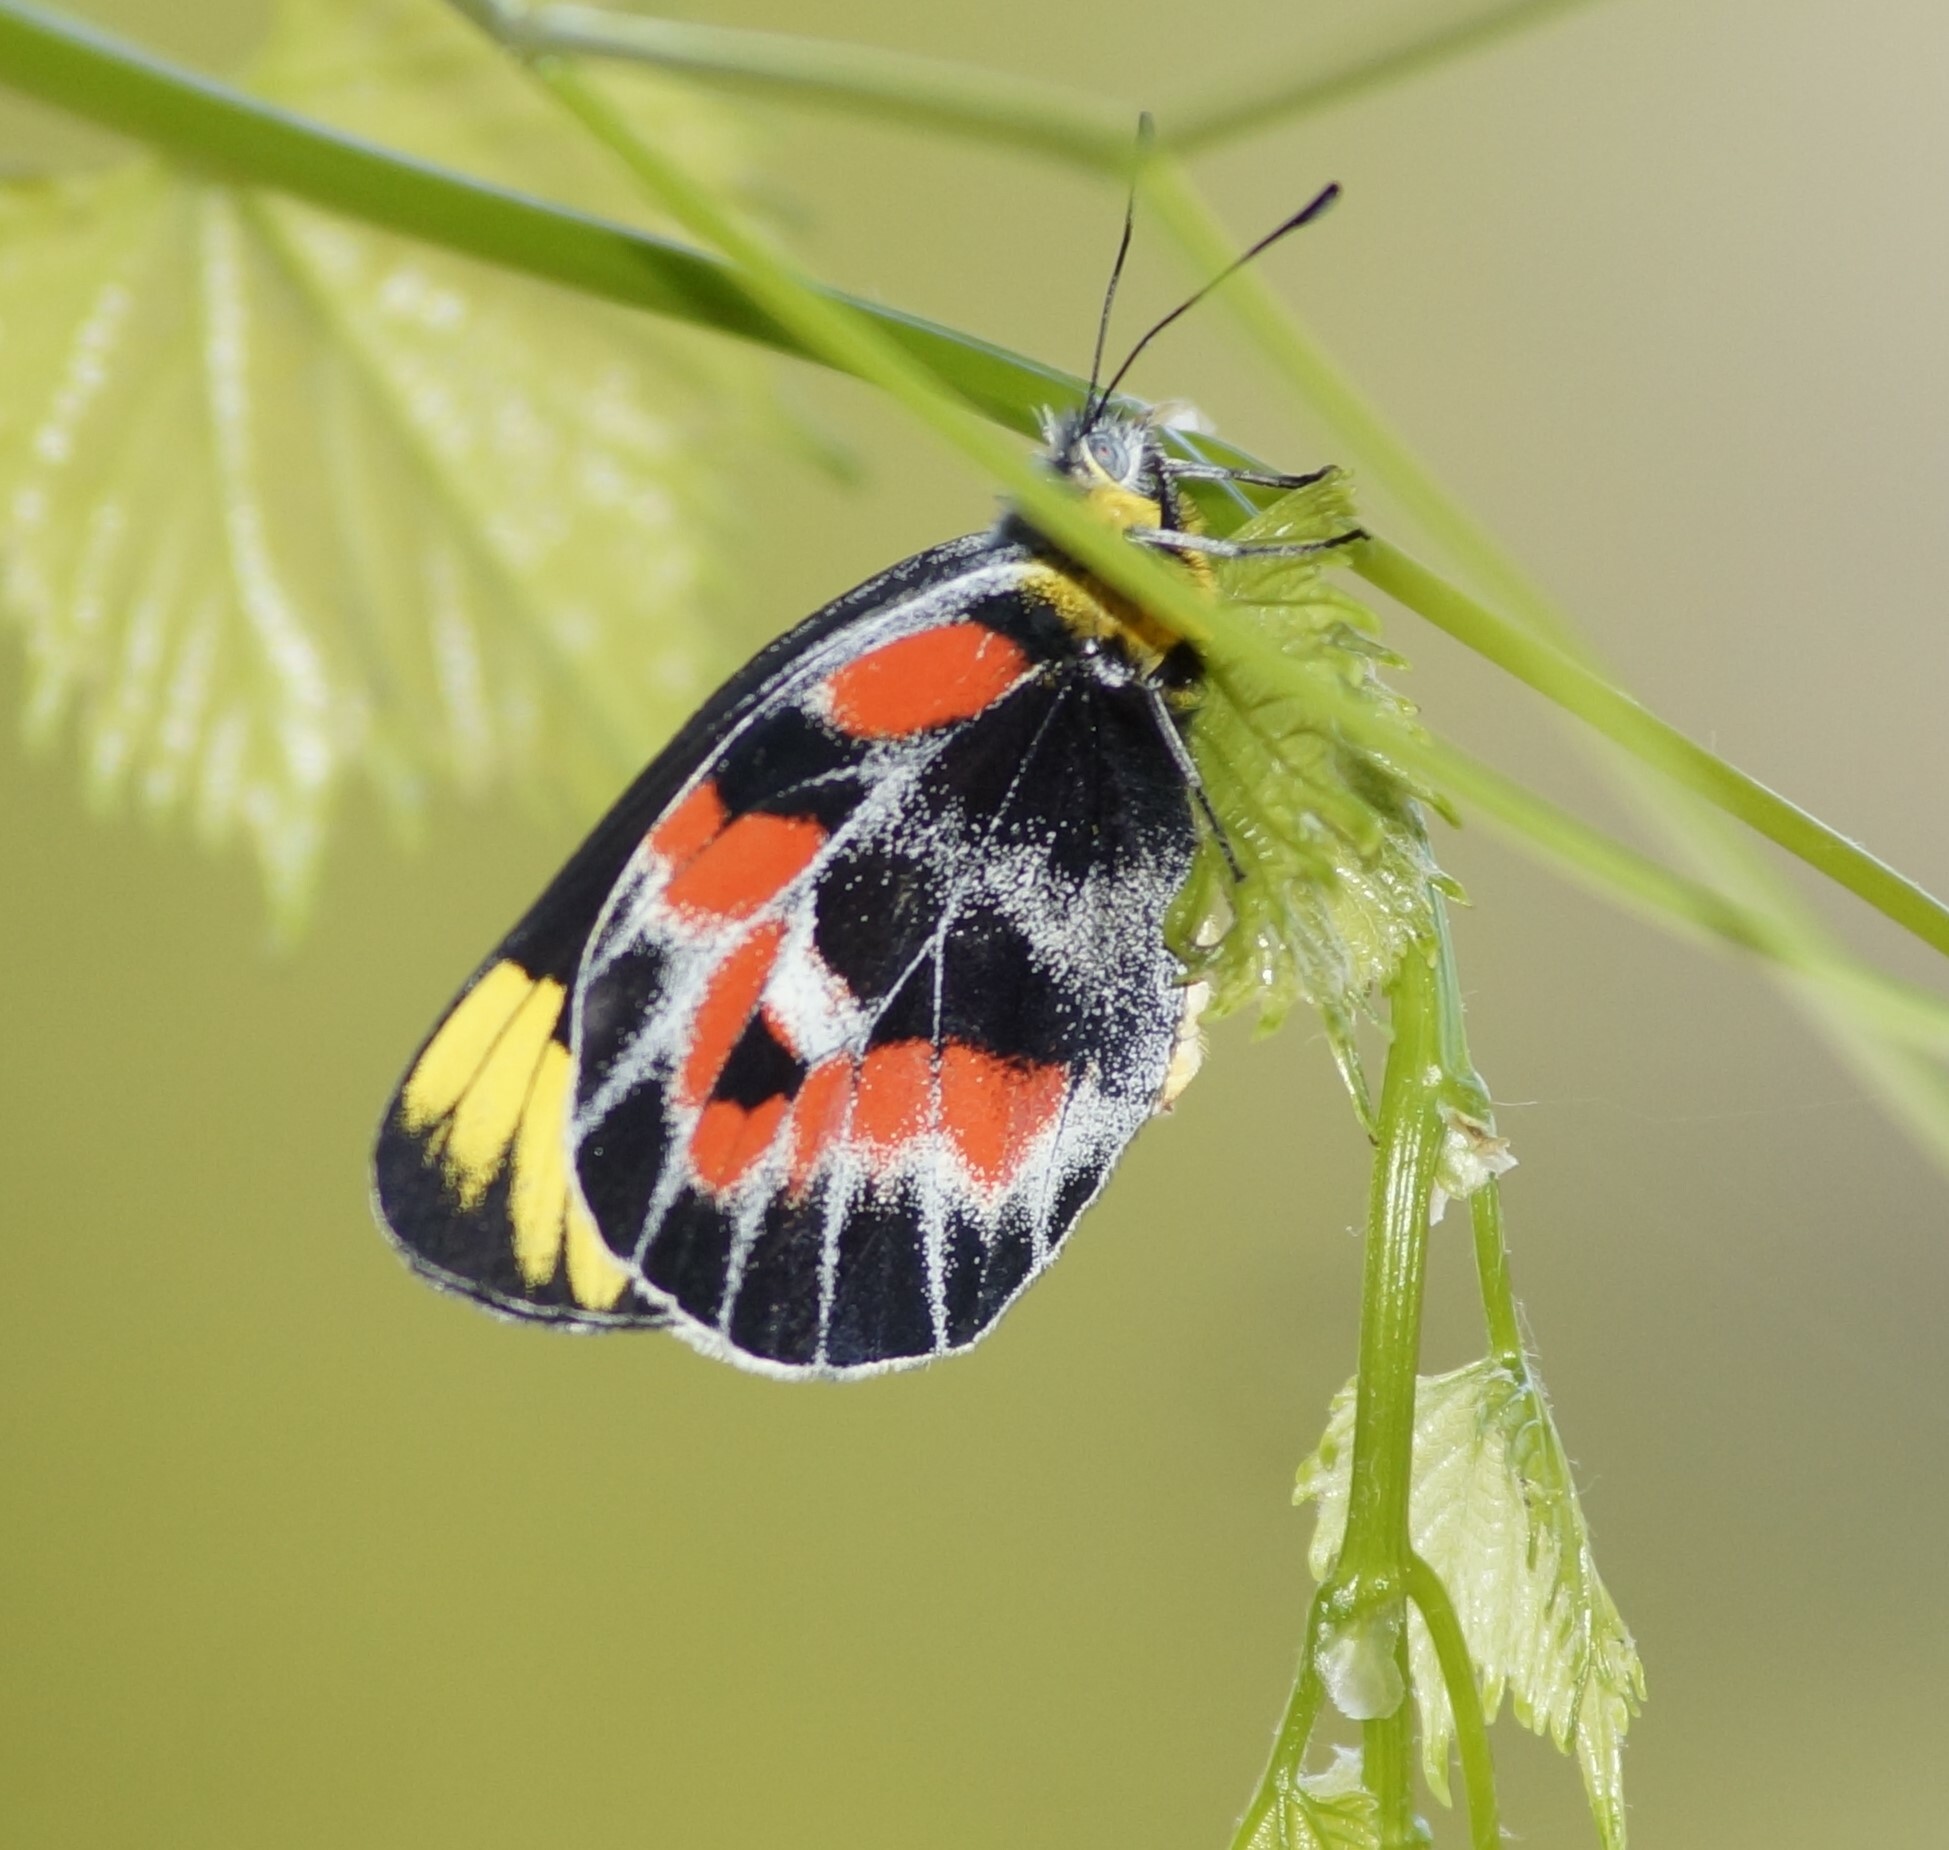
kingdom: Animalia
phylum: Arthropoda
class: Insecta
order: Lepidoptera
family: Pieridae
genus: Delias
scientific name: Delias harpalyce
